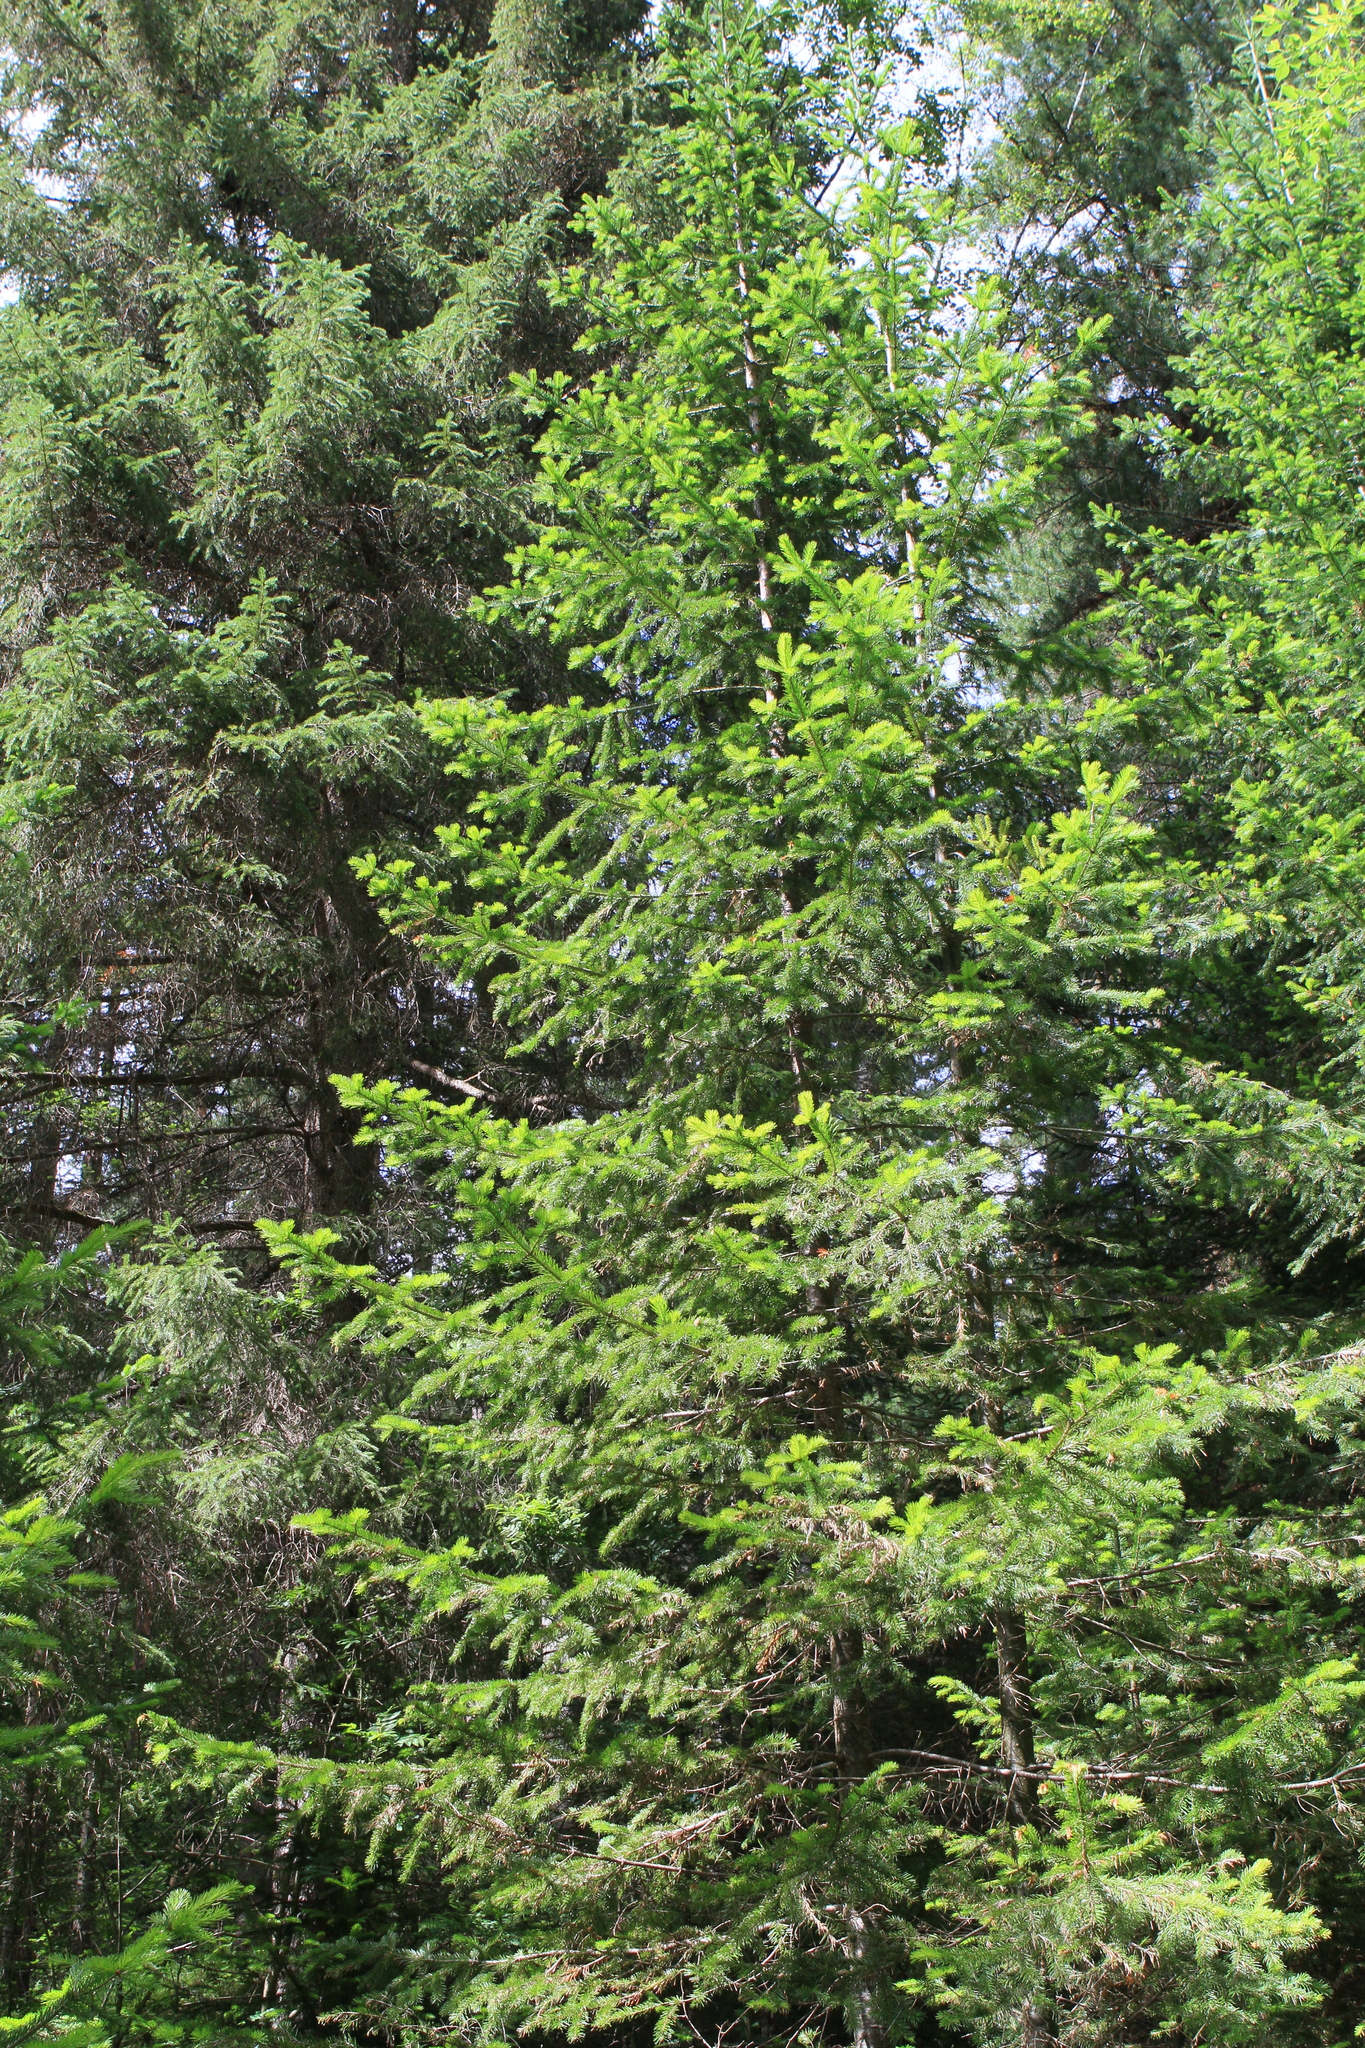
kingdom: Plantae
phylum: Tracheophyta
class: Pinopsida
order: Pinales
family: Pinaceae
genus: Abies
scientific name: Abies sibirica
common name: Siberian fir
